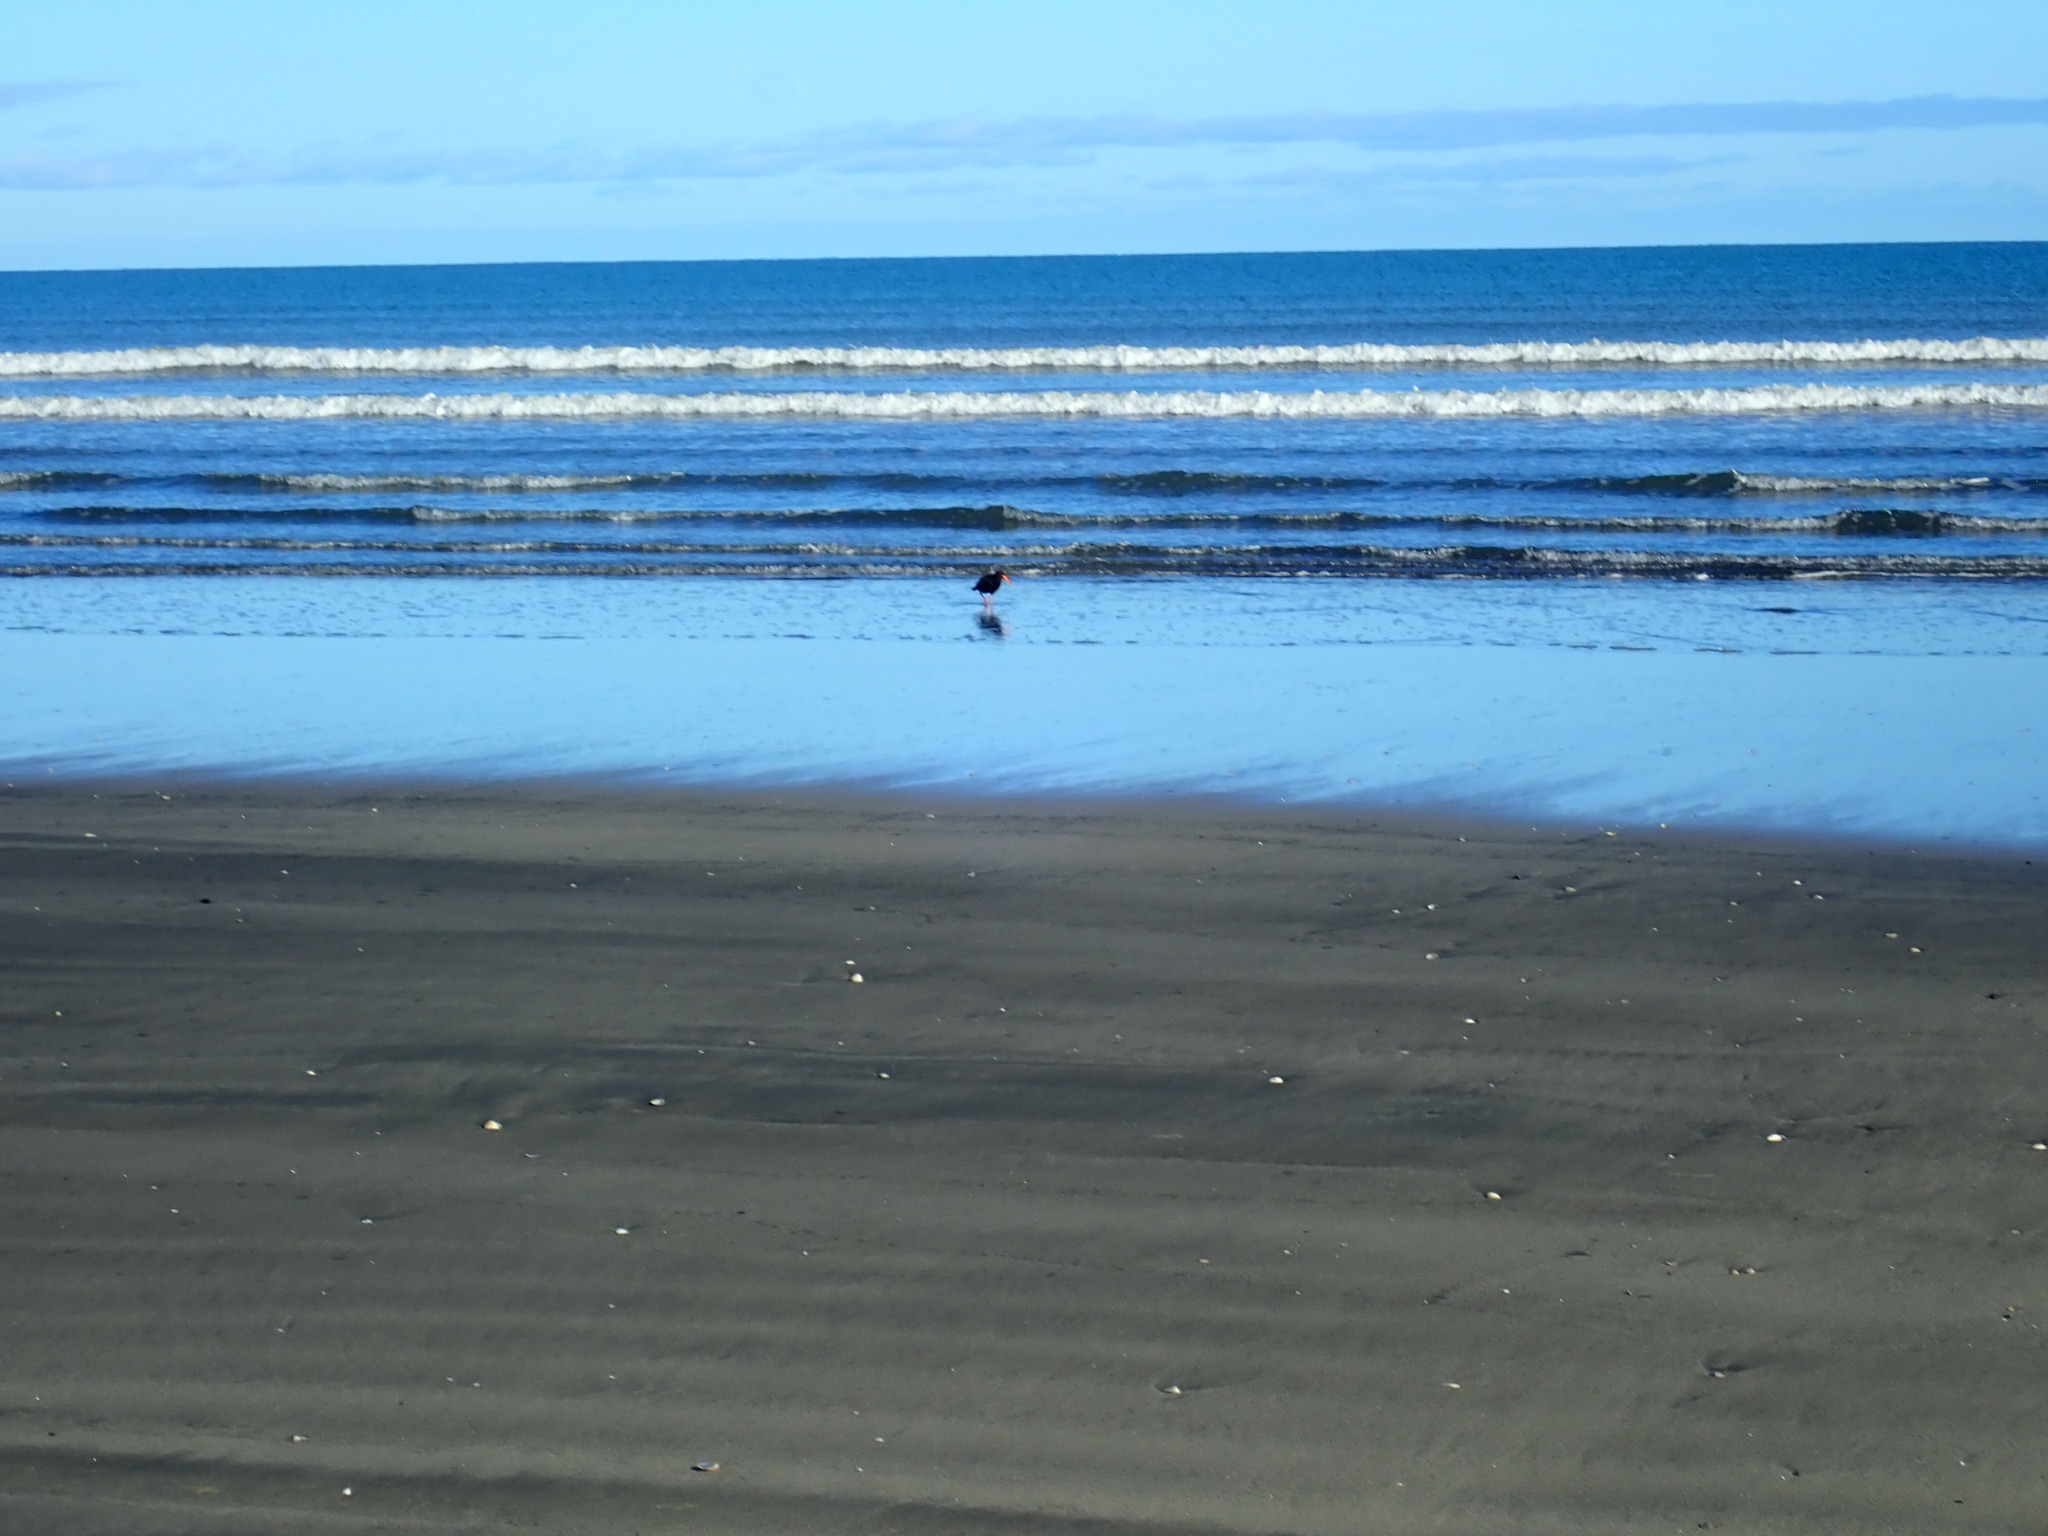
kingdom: Animalia
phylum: Chordata
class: Aves
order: Charadriiformes
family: Haematopodidae
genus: Haematopus
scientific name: Haematopus unicolor
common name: Variable oystercatcher
